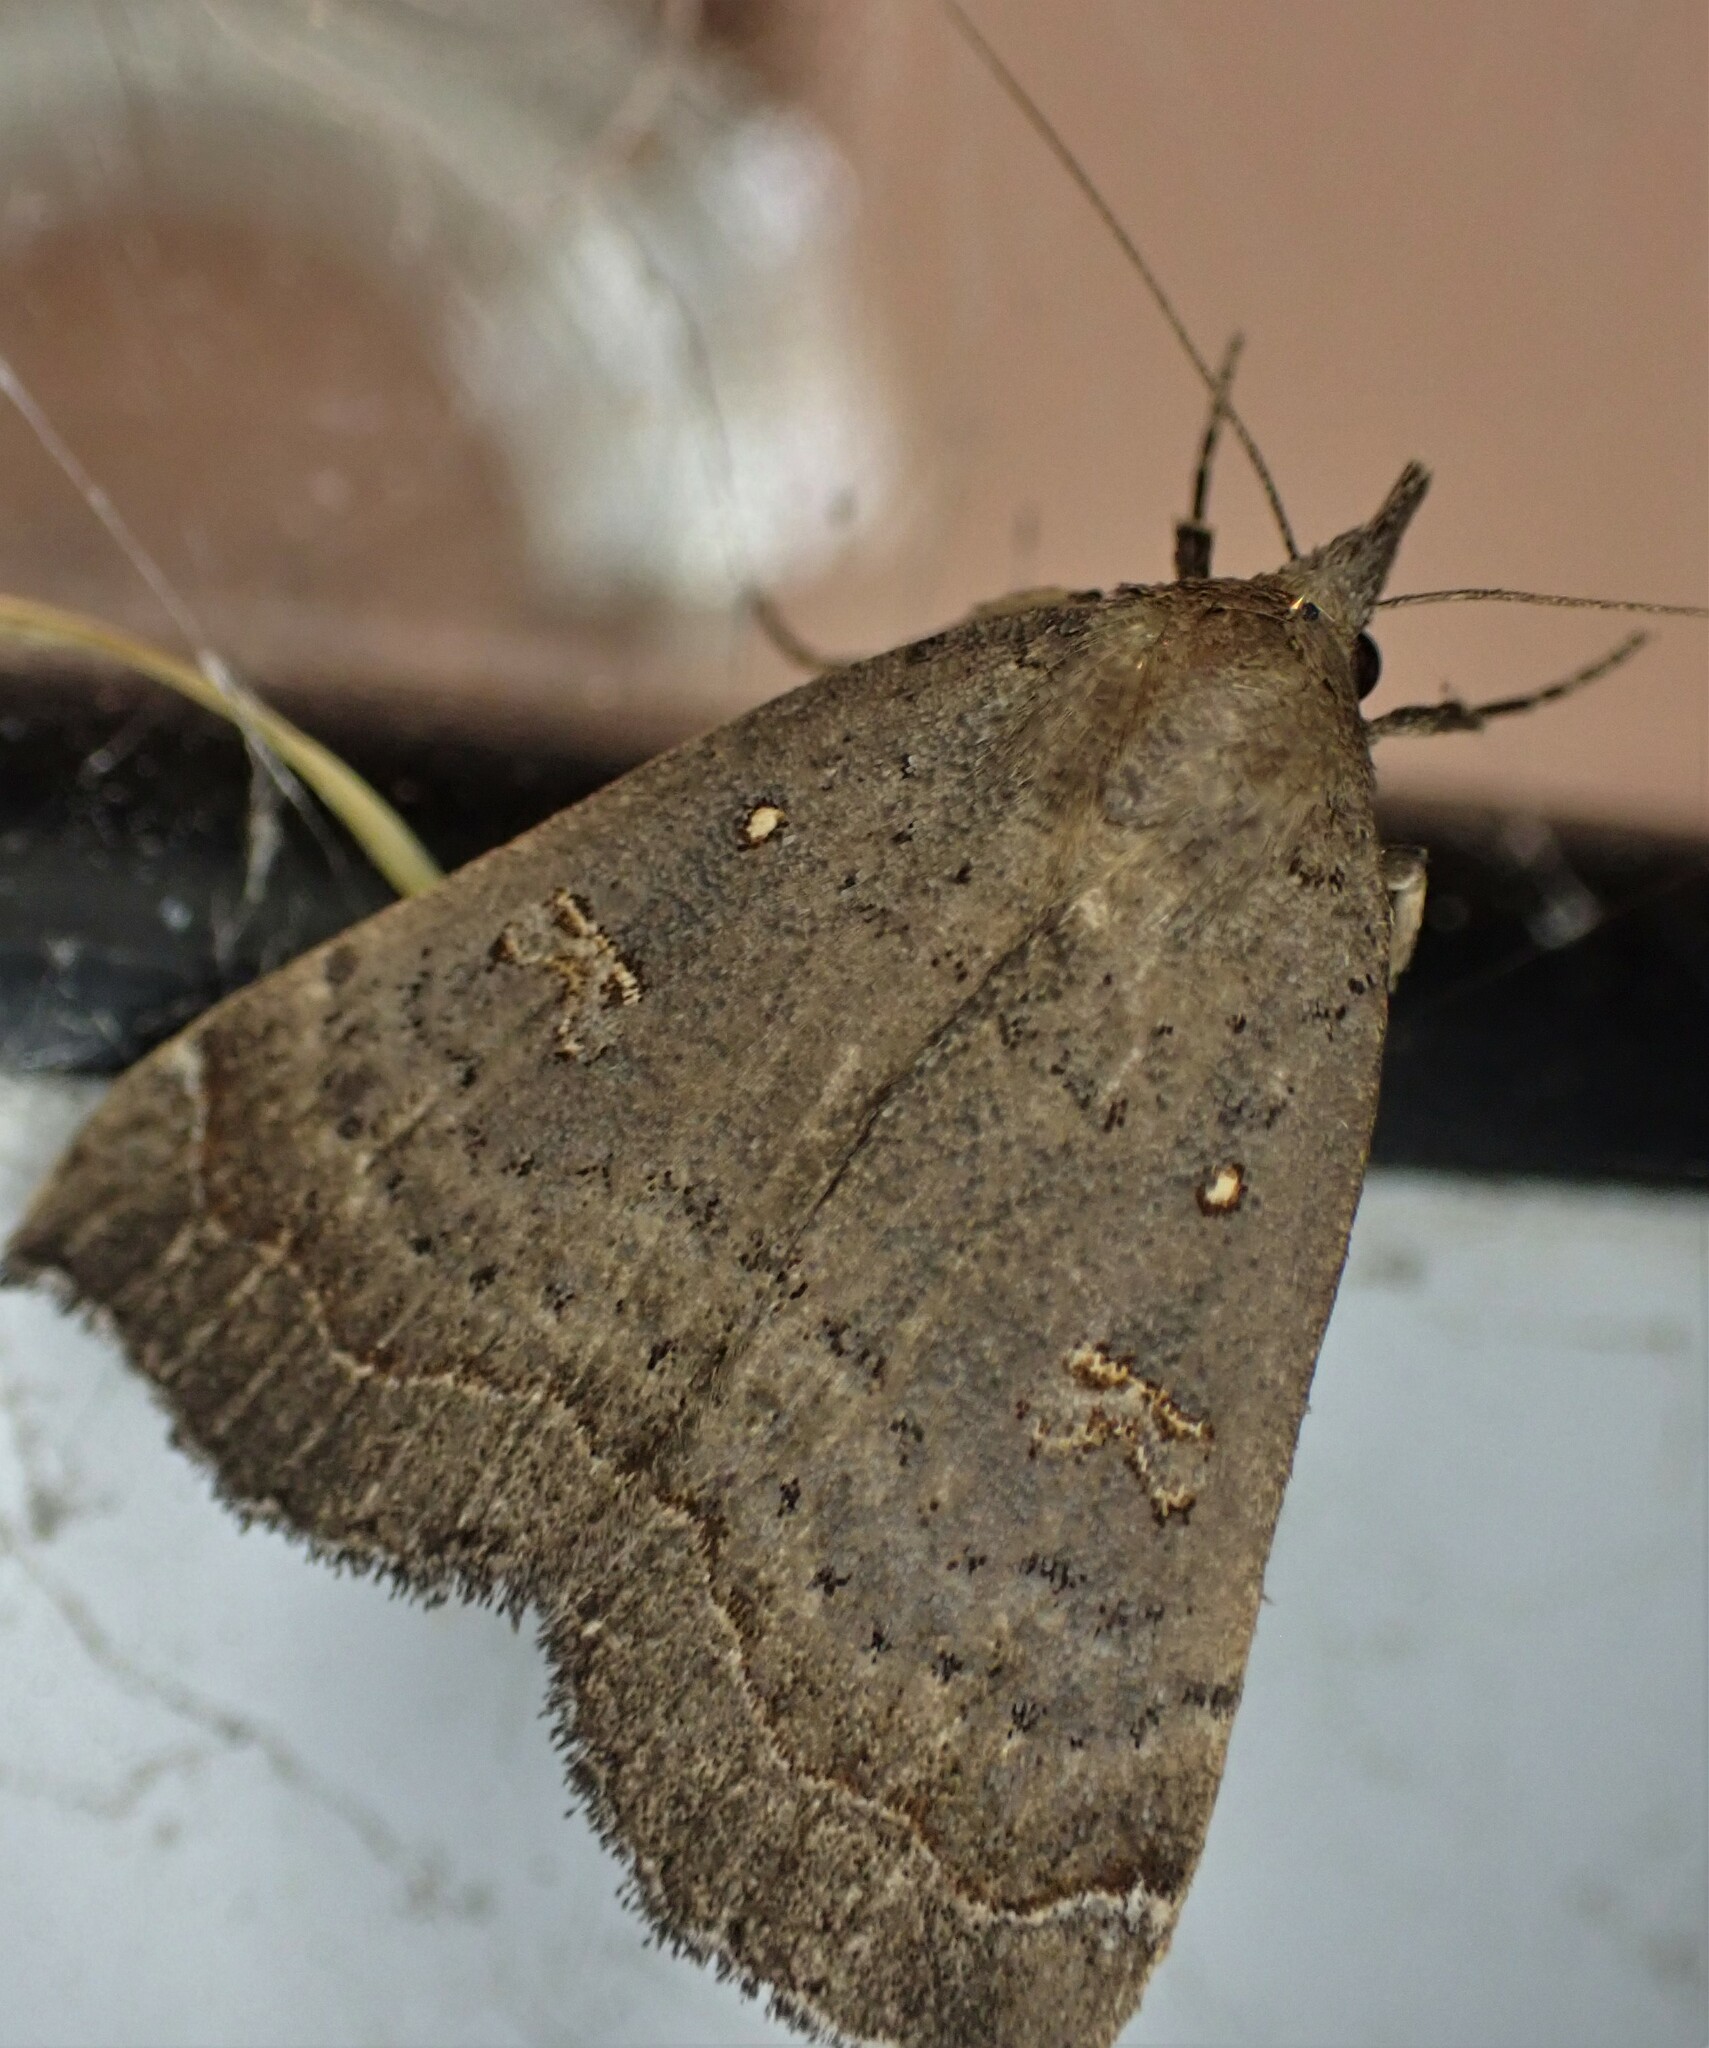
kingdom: Animalia
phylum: Arthropoda
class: Insecta
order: Lepidoptera
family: Erebidae
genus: Rhapsa
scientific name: Rhapsa scotosialis
